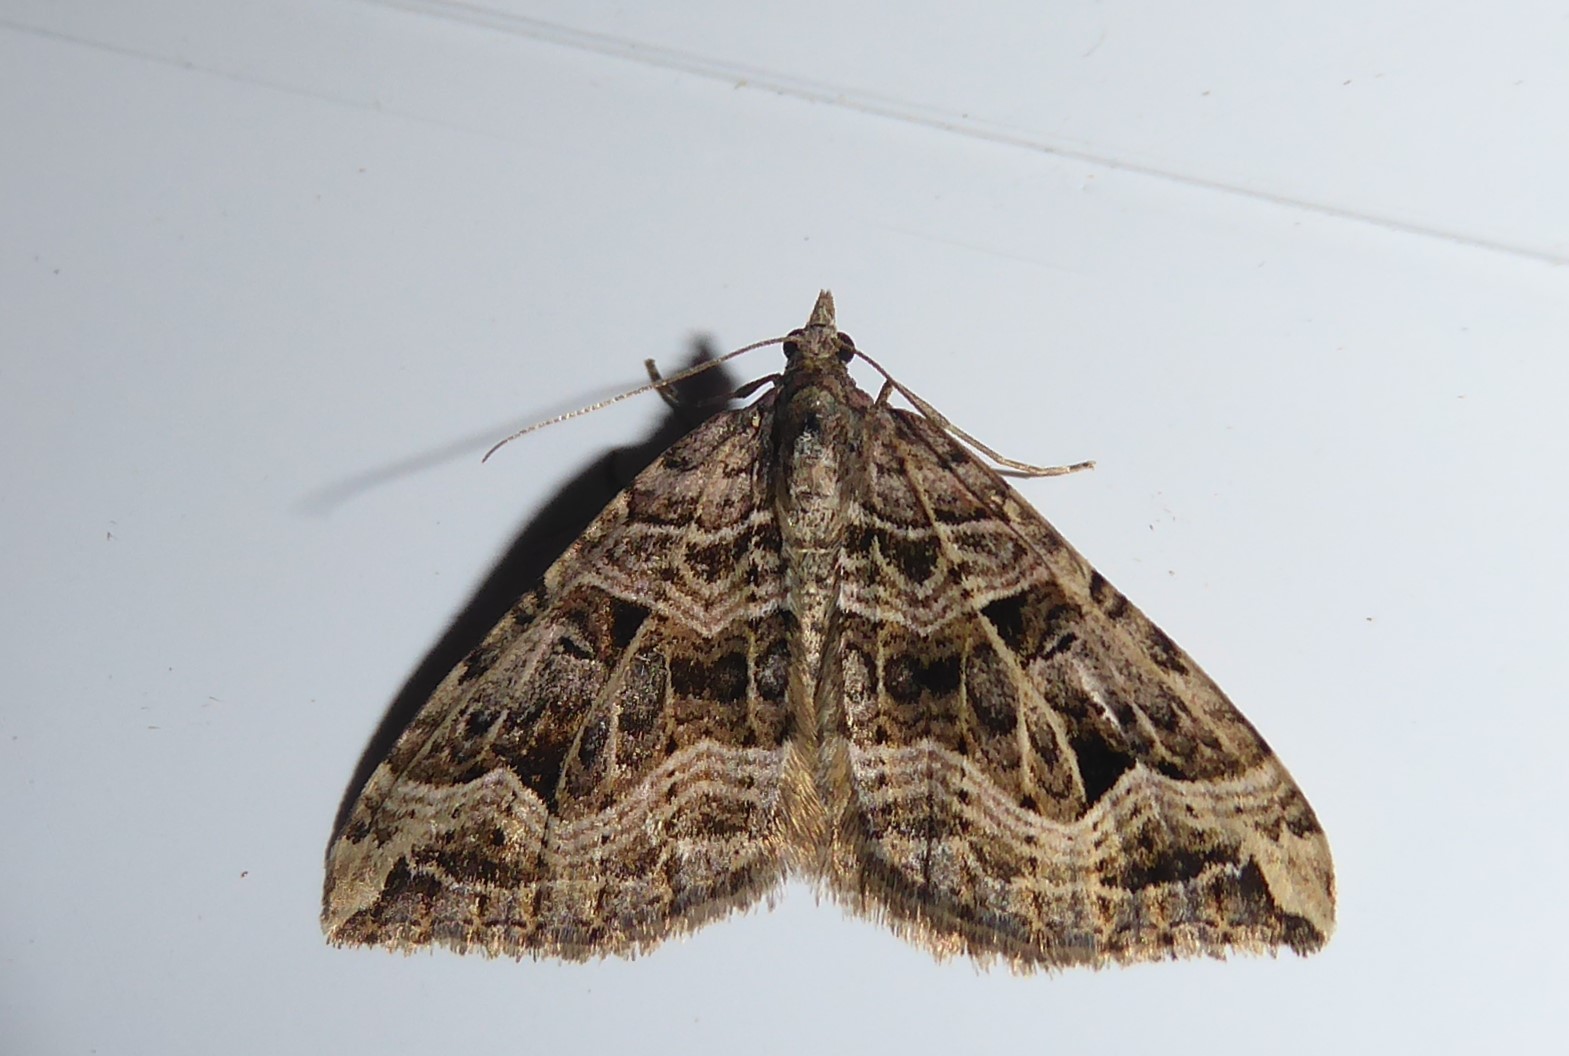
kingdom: Animalia
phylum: Arthropoda
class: Insecta
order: Lepidoptera
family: Geometridae
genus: Xanthorhoe
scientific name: Xanthorhoe semifissata
